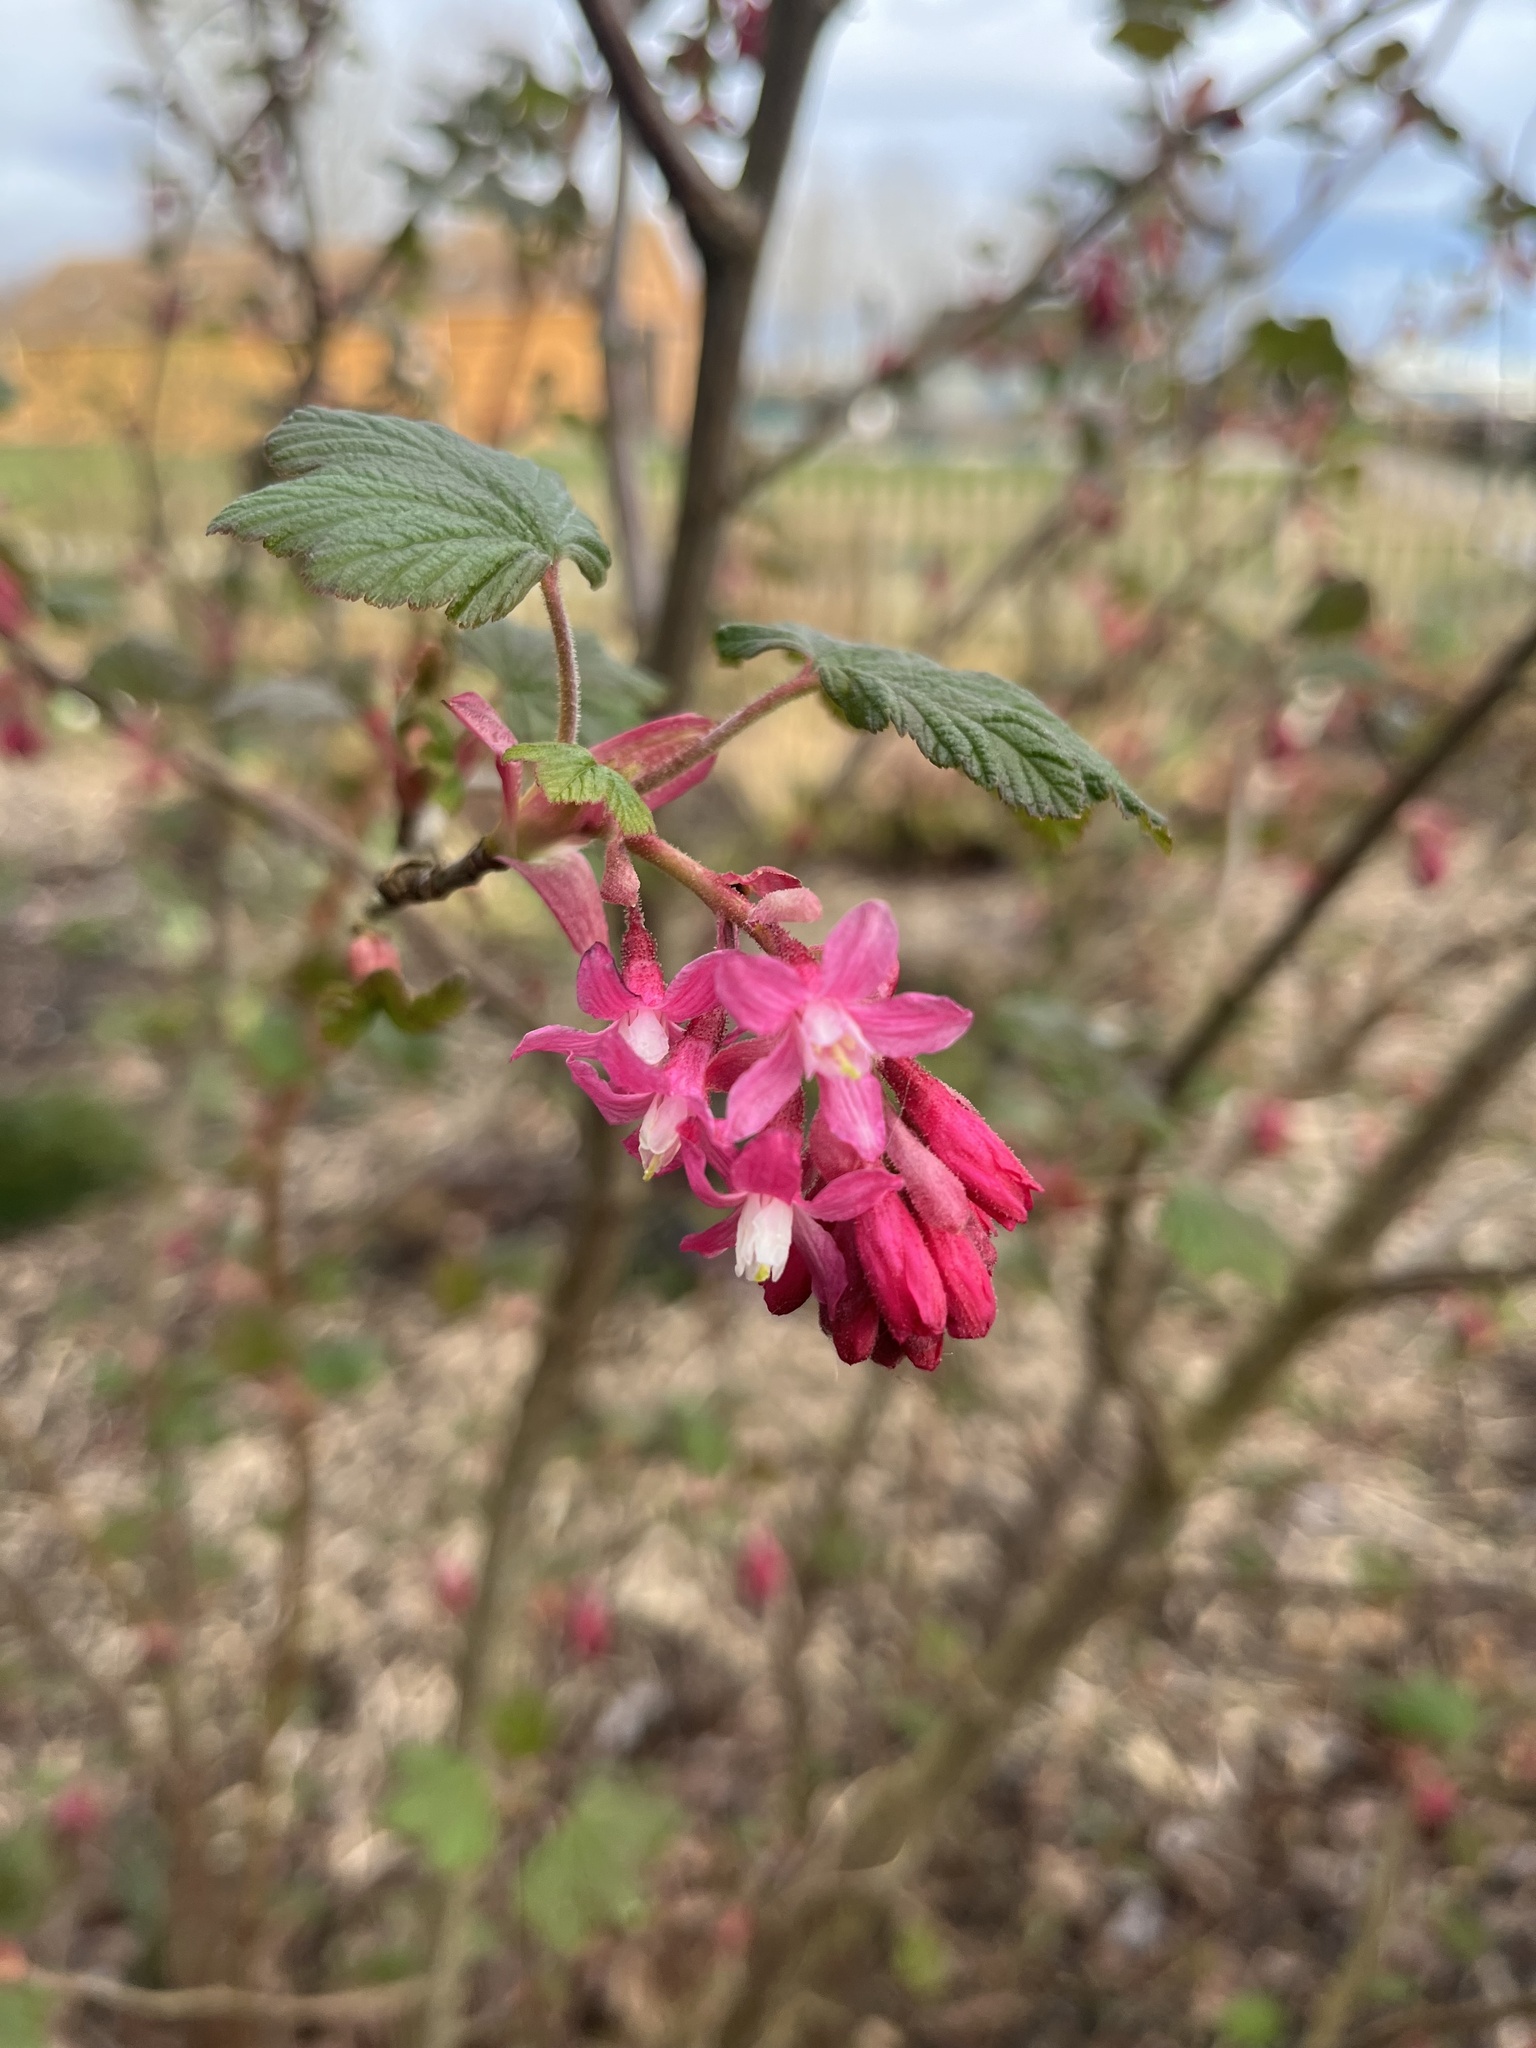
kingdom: Plantae
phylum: Tracheophyta
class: Magnoliopsida
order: Saxifragales
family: Grossulariaceae
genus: Ribes
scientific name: Ribes sanguineum
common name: Flowering currant
